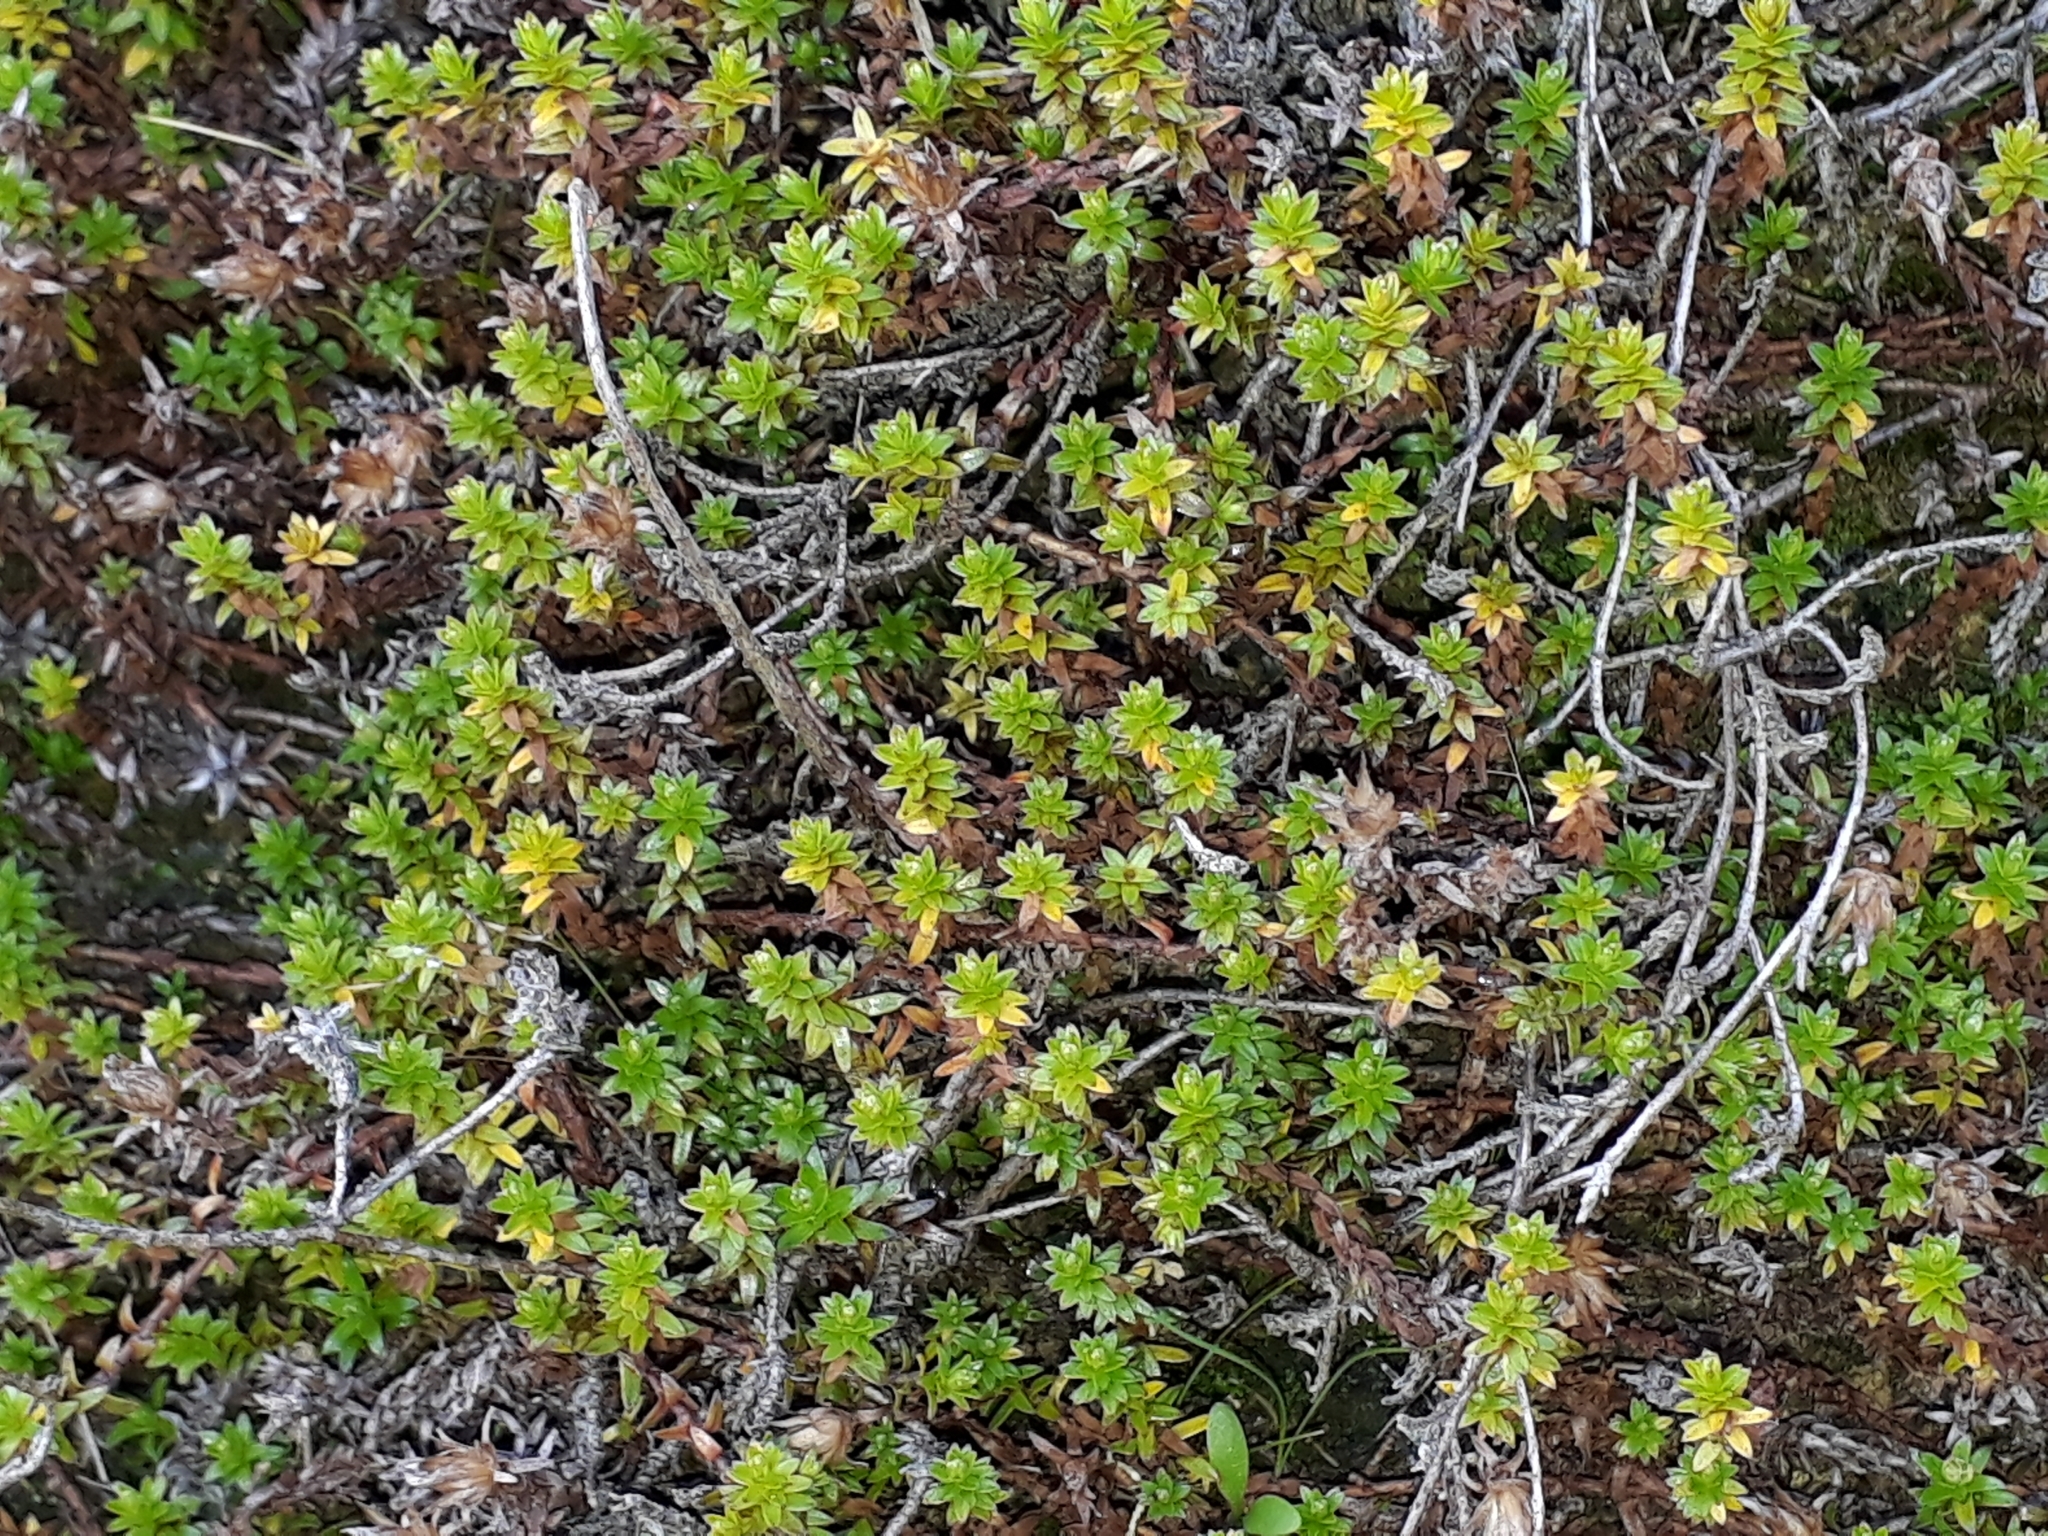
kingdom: Plantae
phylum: Tracheophyta
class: Magnoliopsida
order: Asterales
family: Asteraceae
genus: Raoulia
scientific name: Raoulia glabra
